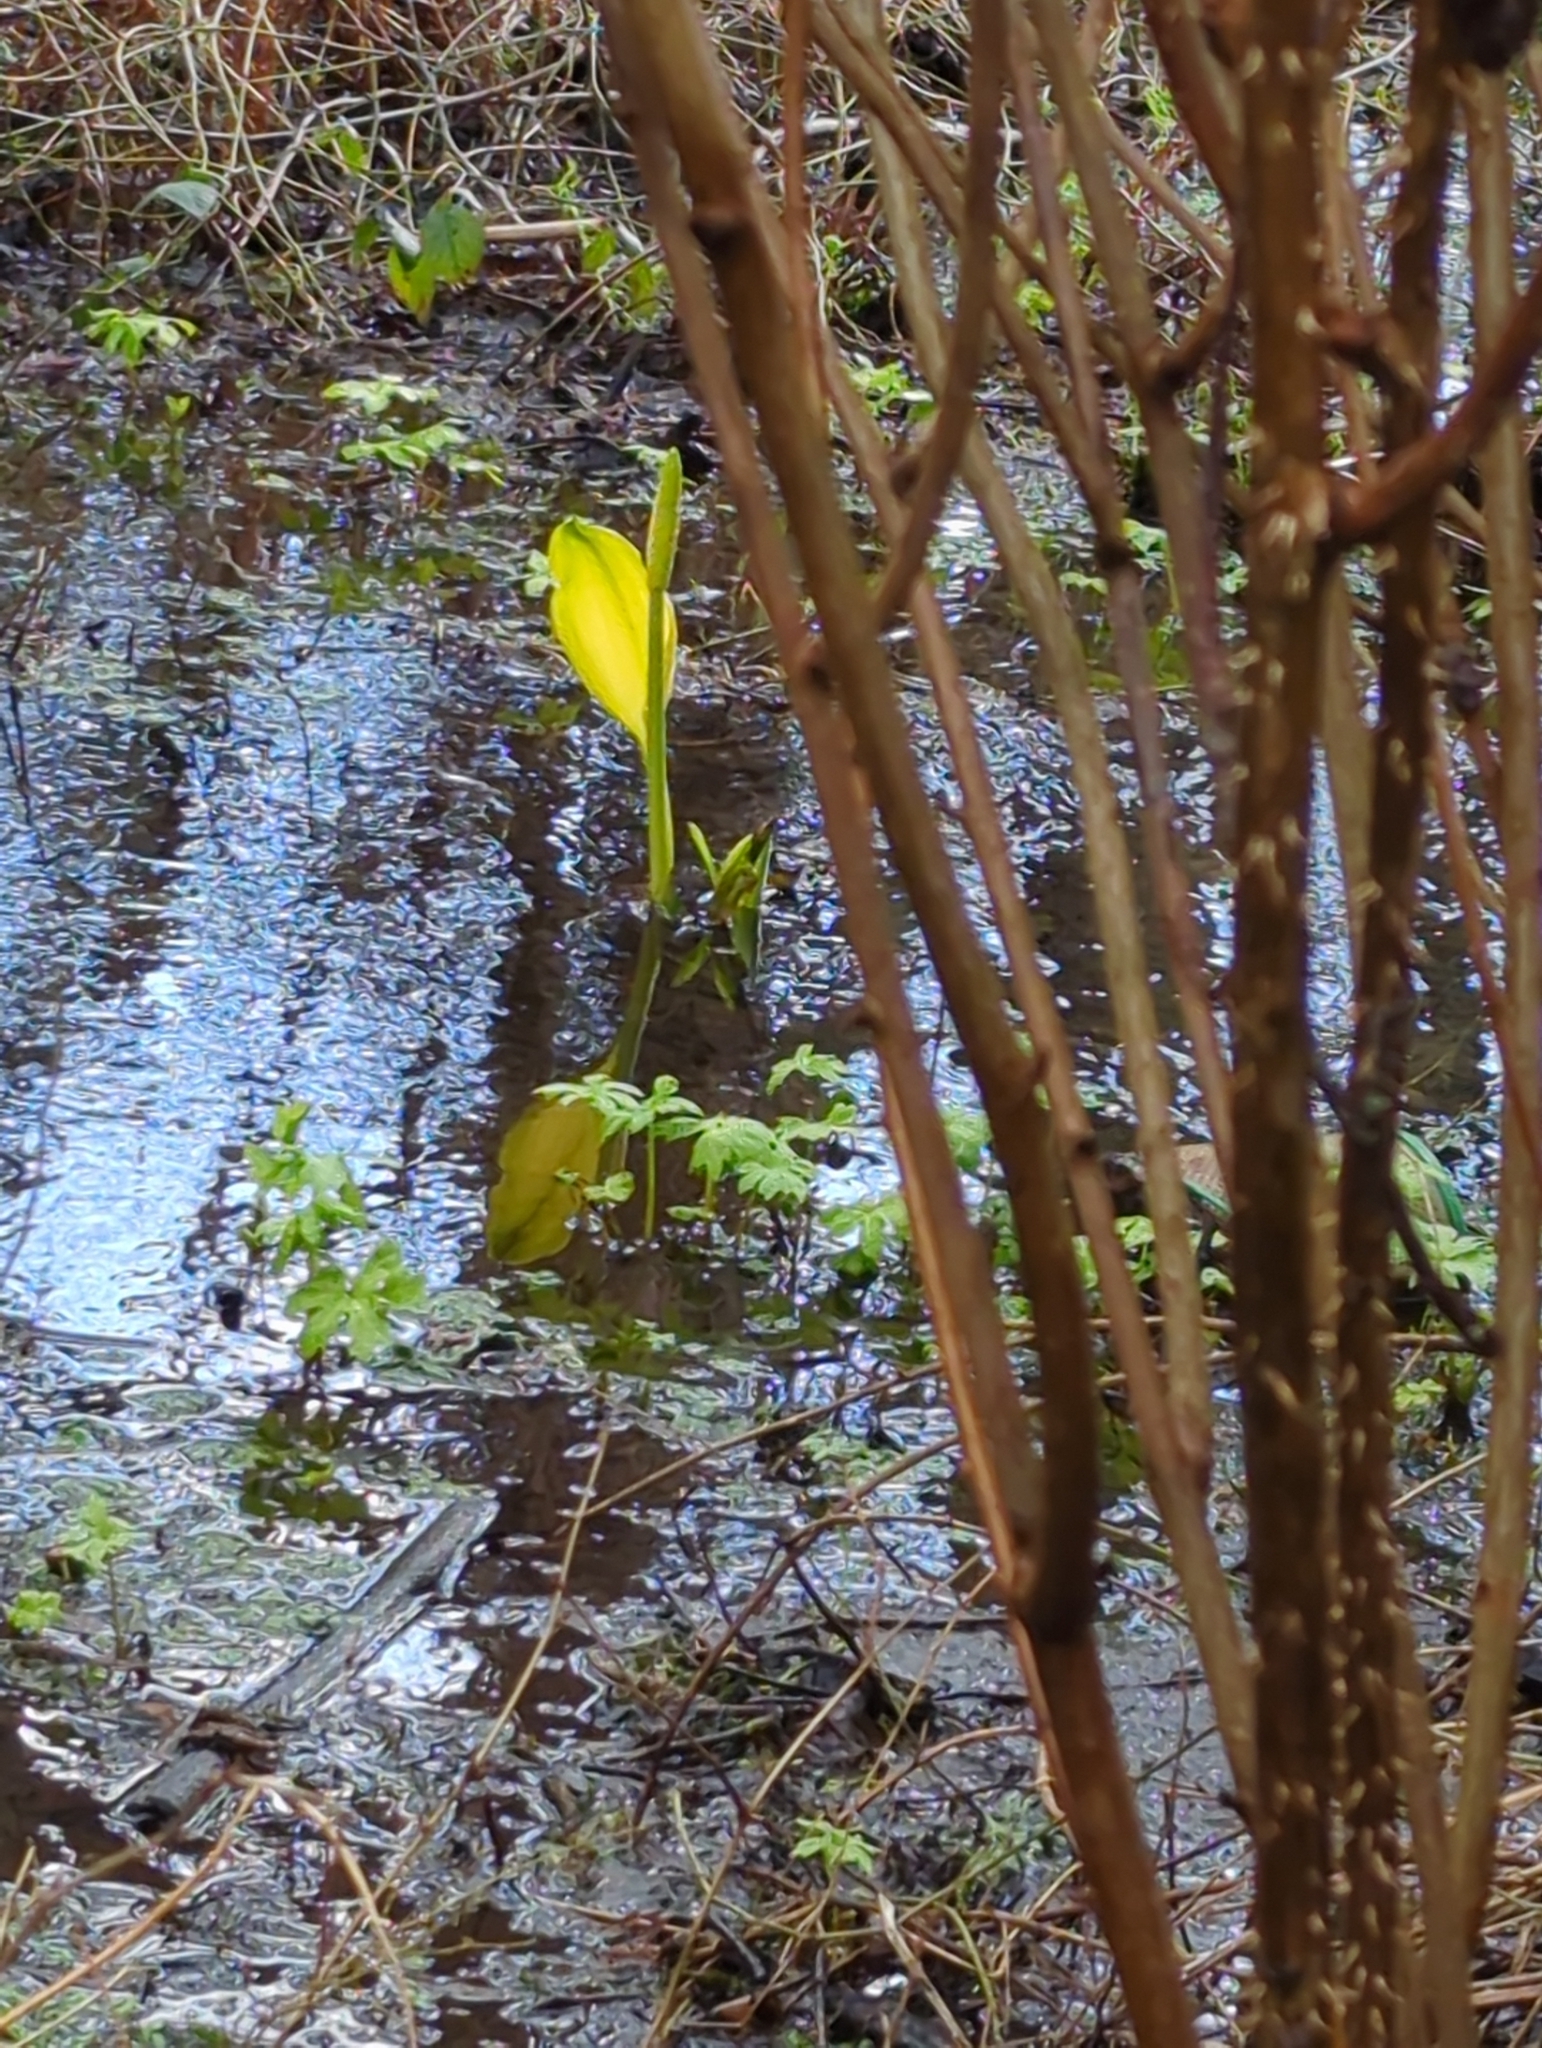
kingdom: Plantae
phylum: Tracheophyta
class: Liliopsida
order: Alismatales
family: Araceae
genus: Lysichiton
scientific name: Lysichiton americanus
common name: American skunk cabbage
